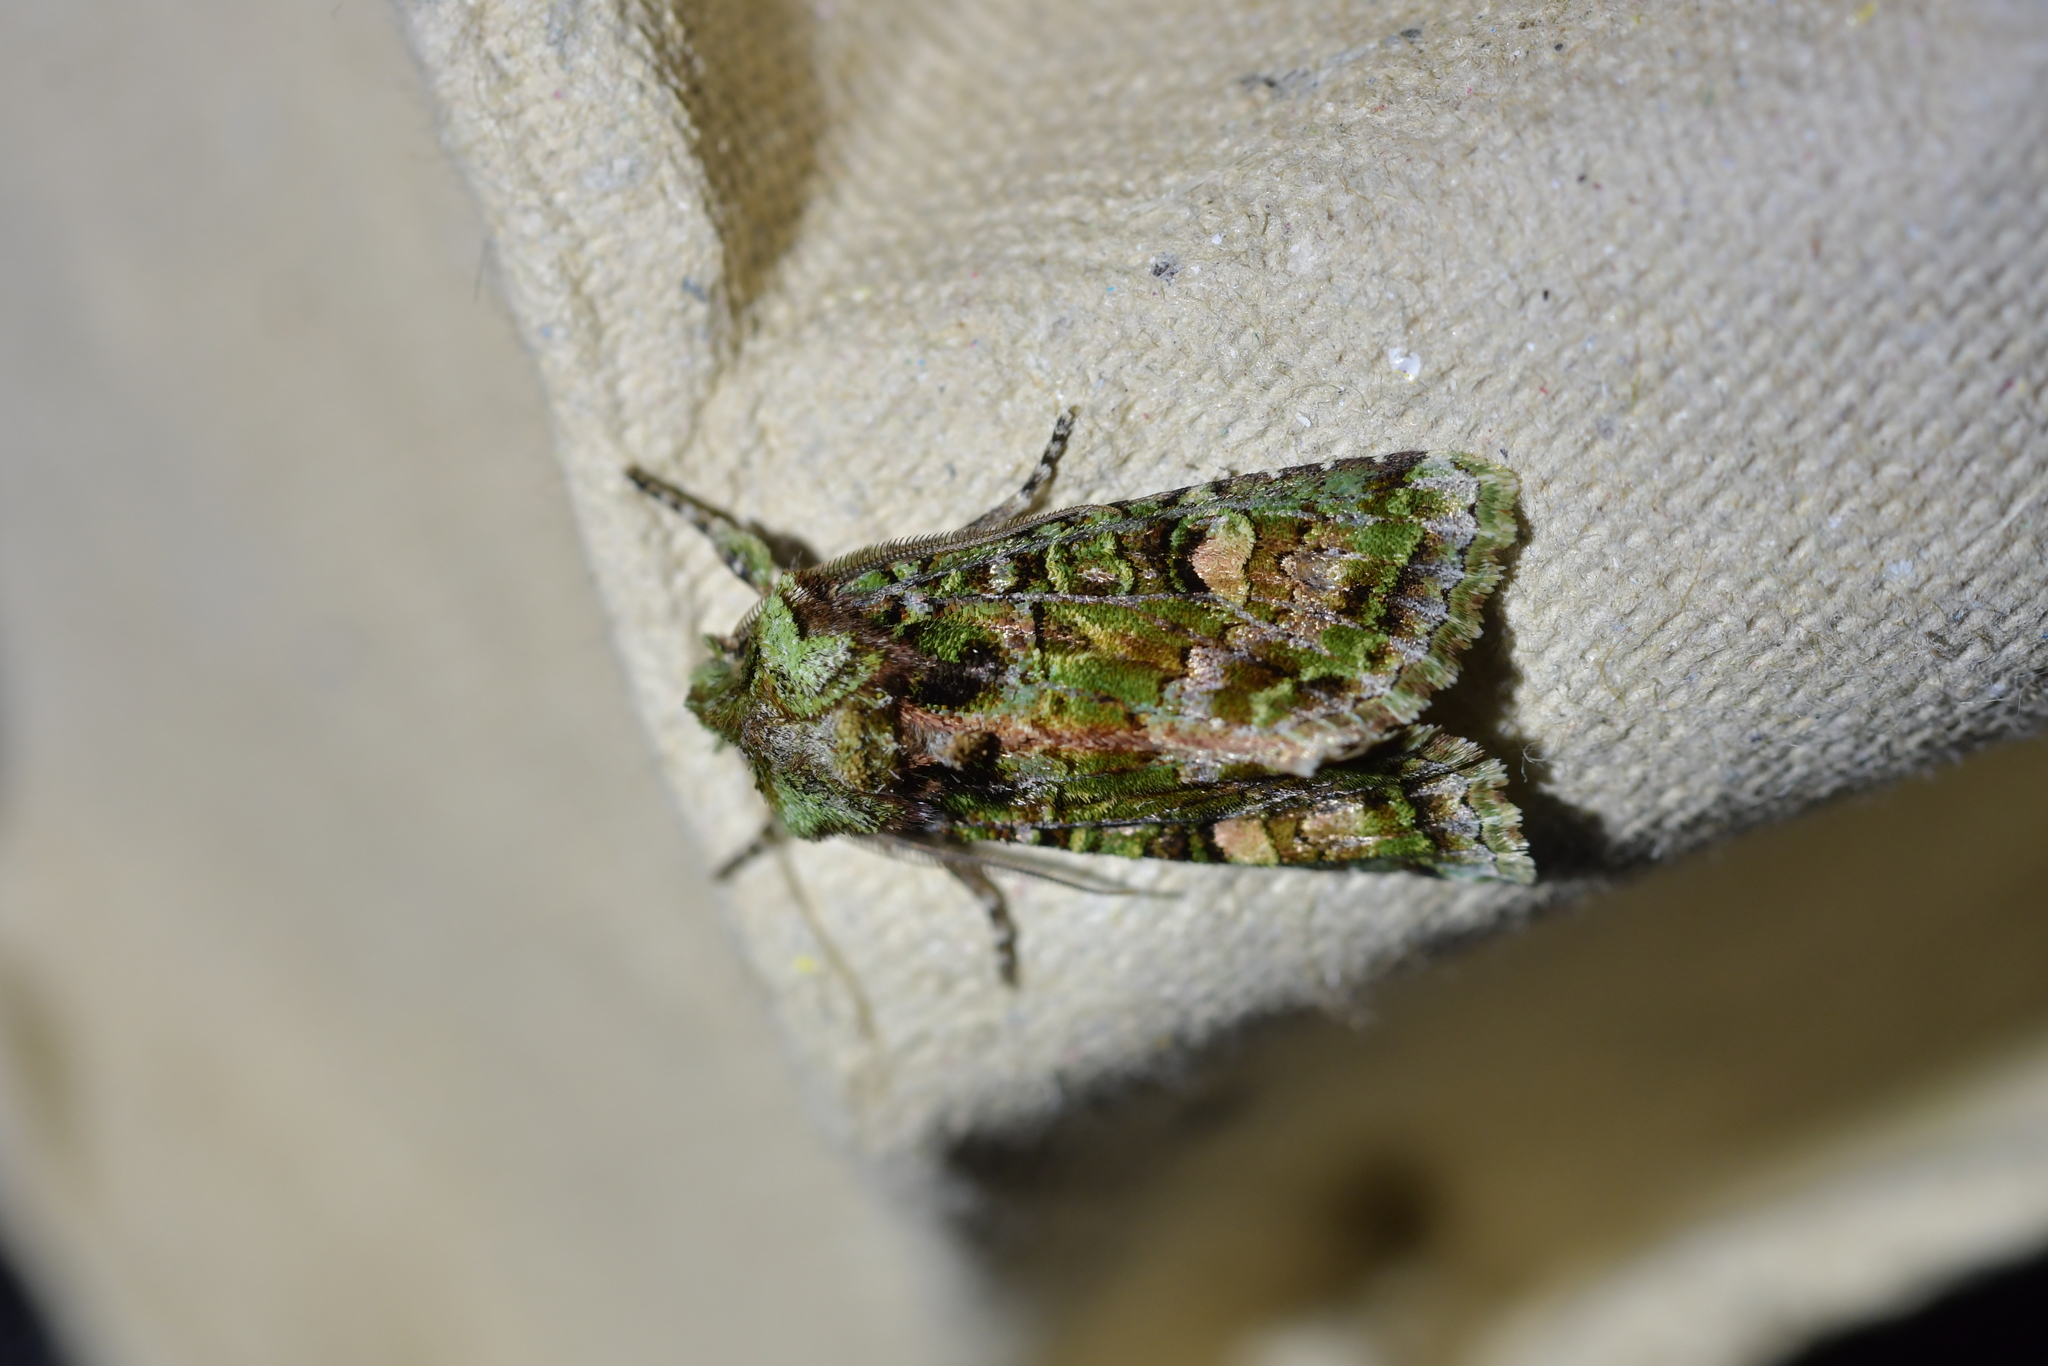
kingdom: Animalia
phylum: Arthropoda
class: Insecta
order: Lepidoptera
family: Noctuidae
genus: Ichneutica
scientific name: Ichneutica
